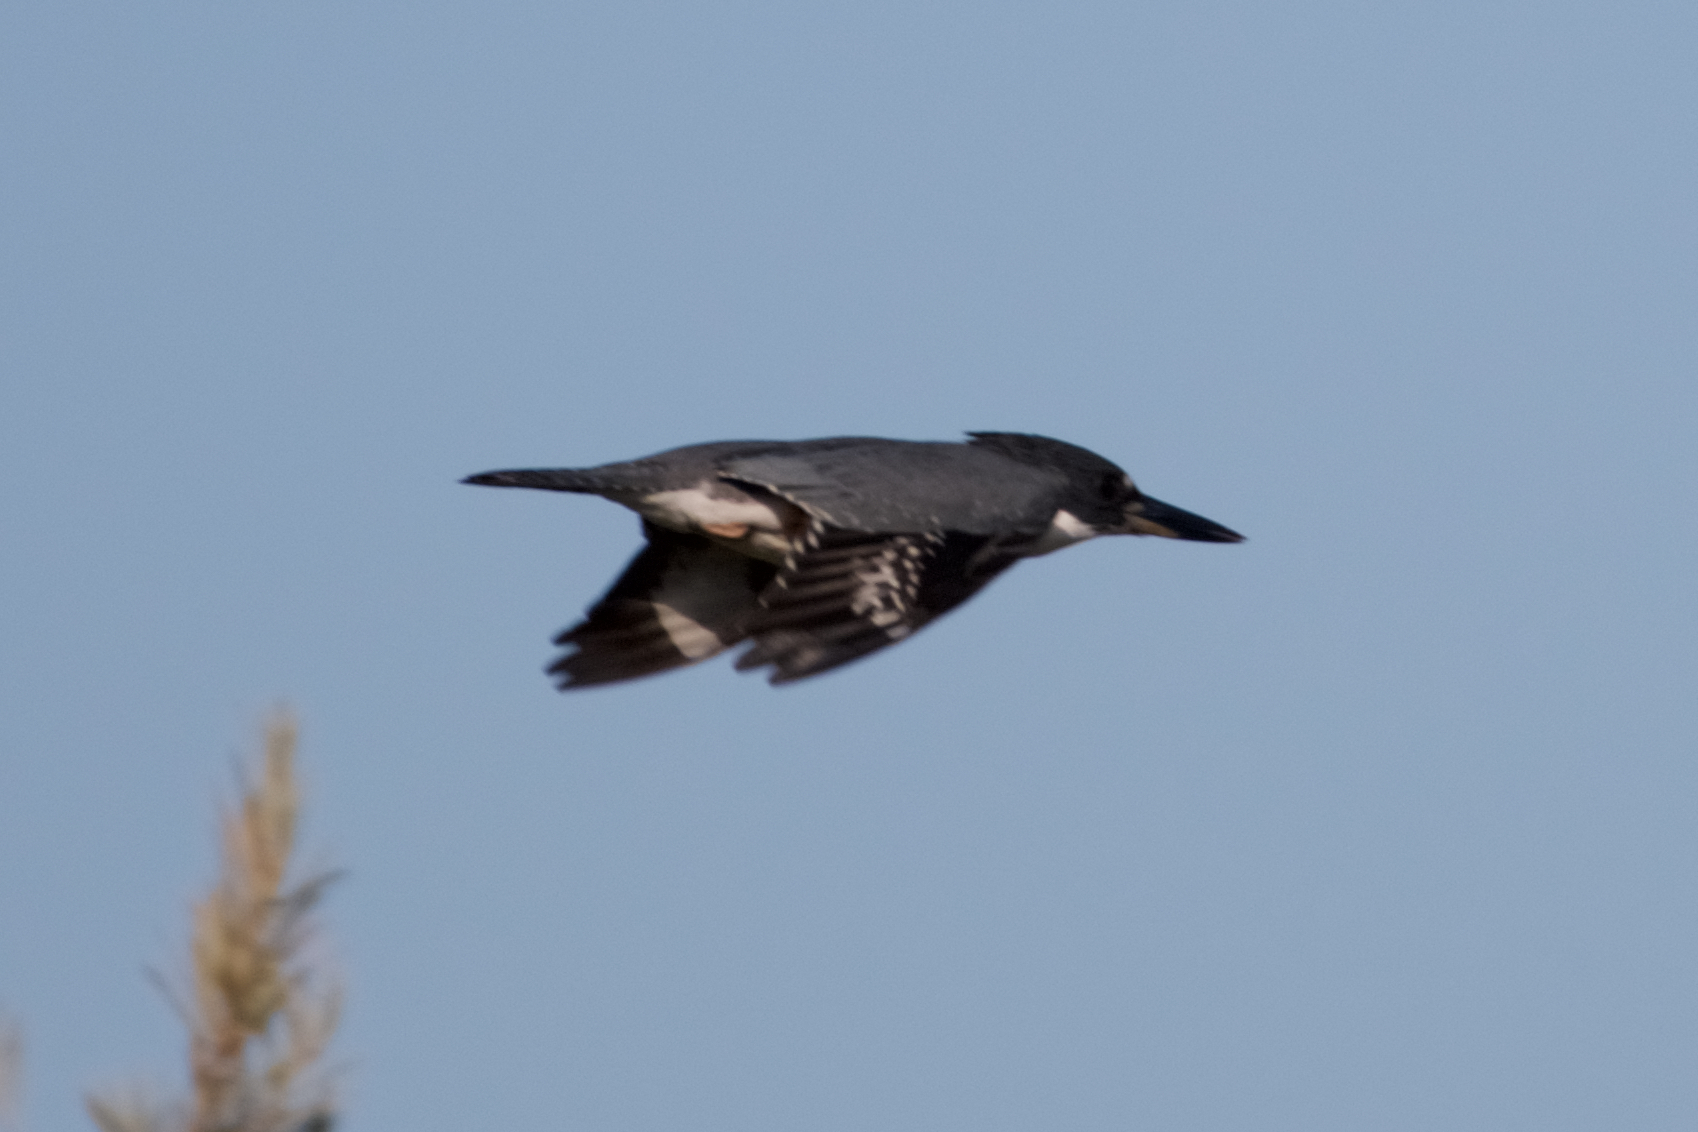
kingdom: Animalia
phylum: Chordata
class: Aves
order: Coraciiformes
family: Alcedinidae
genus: Megaceryle
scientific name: Megaceryle alcyon
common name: Belted kingfisher
